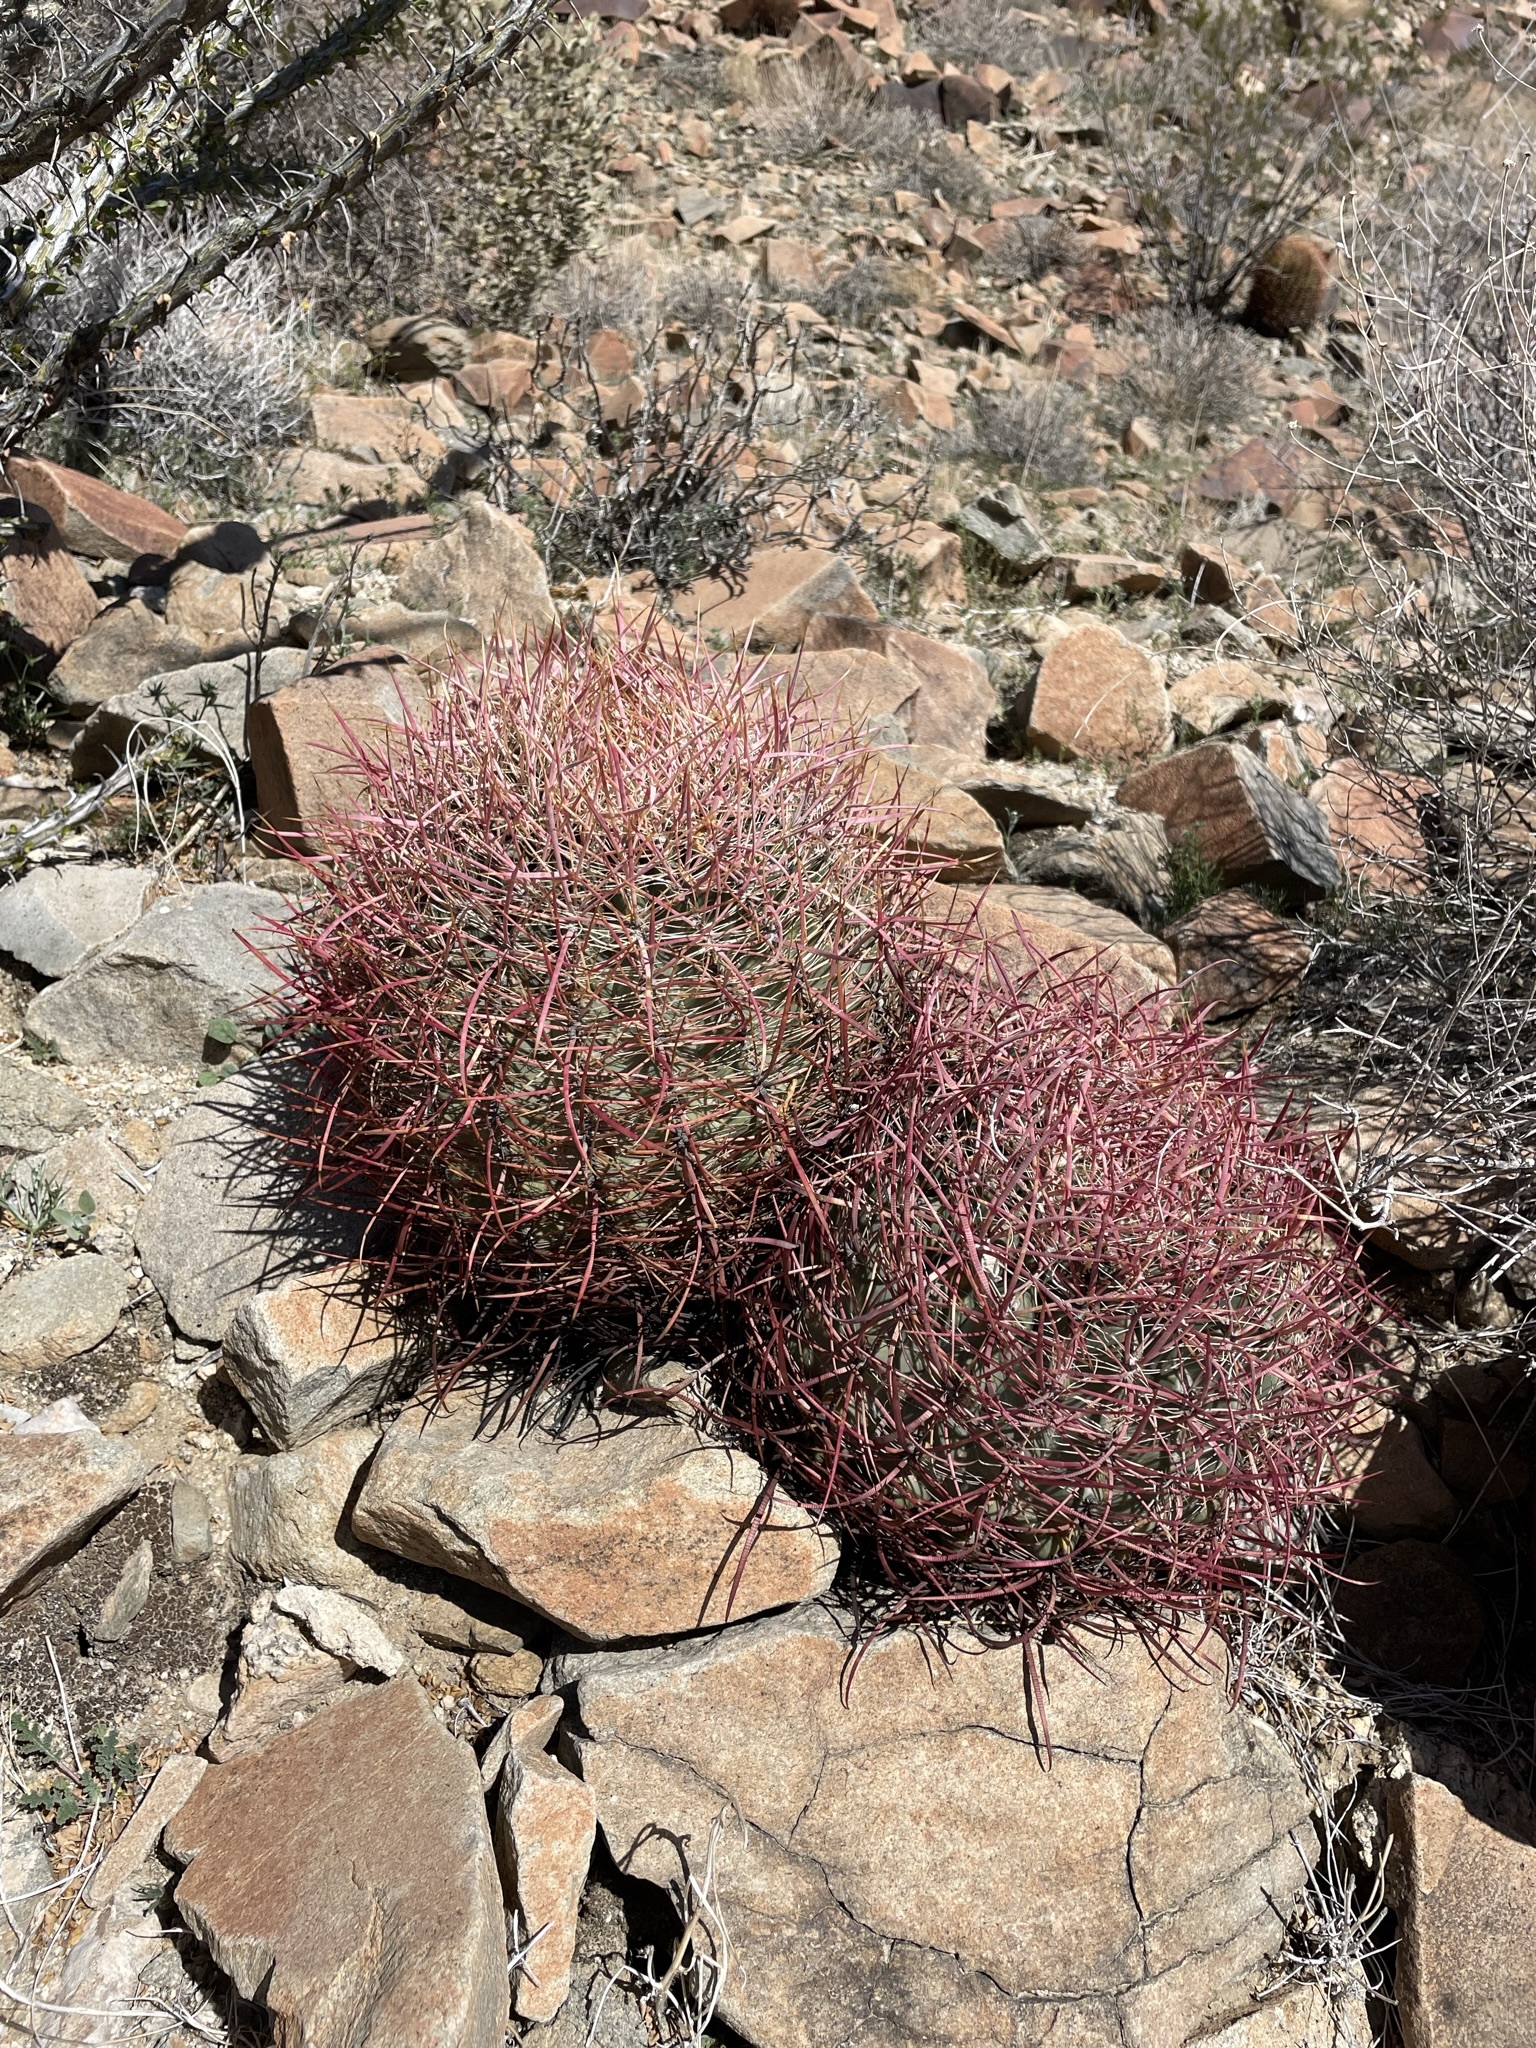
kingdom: Plantae
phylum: Tracheophyta
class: Magnoliopsida
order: Caryophyllales
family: Cactaceae
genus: Ferocactus
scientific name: Ferocactus cylindraceus
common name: California barrel cactus
